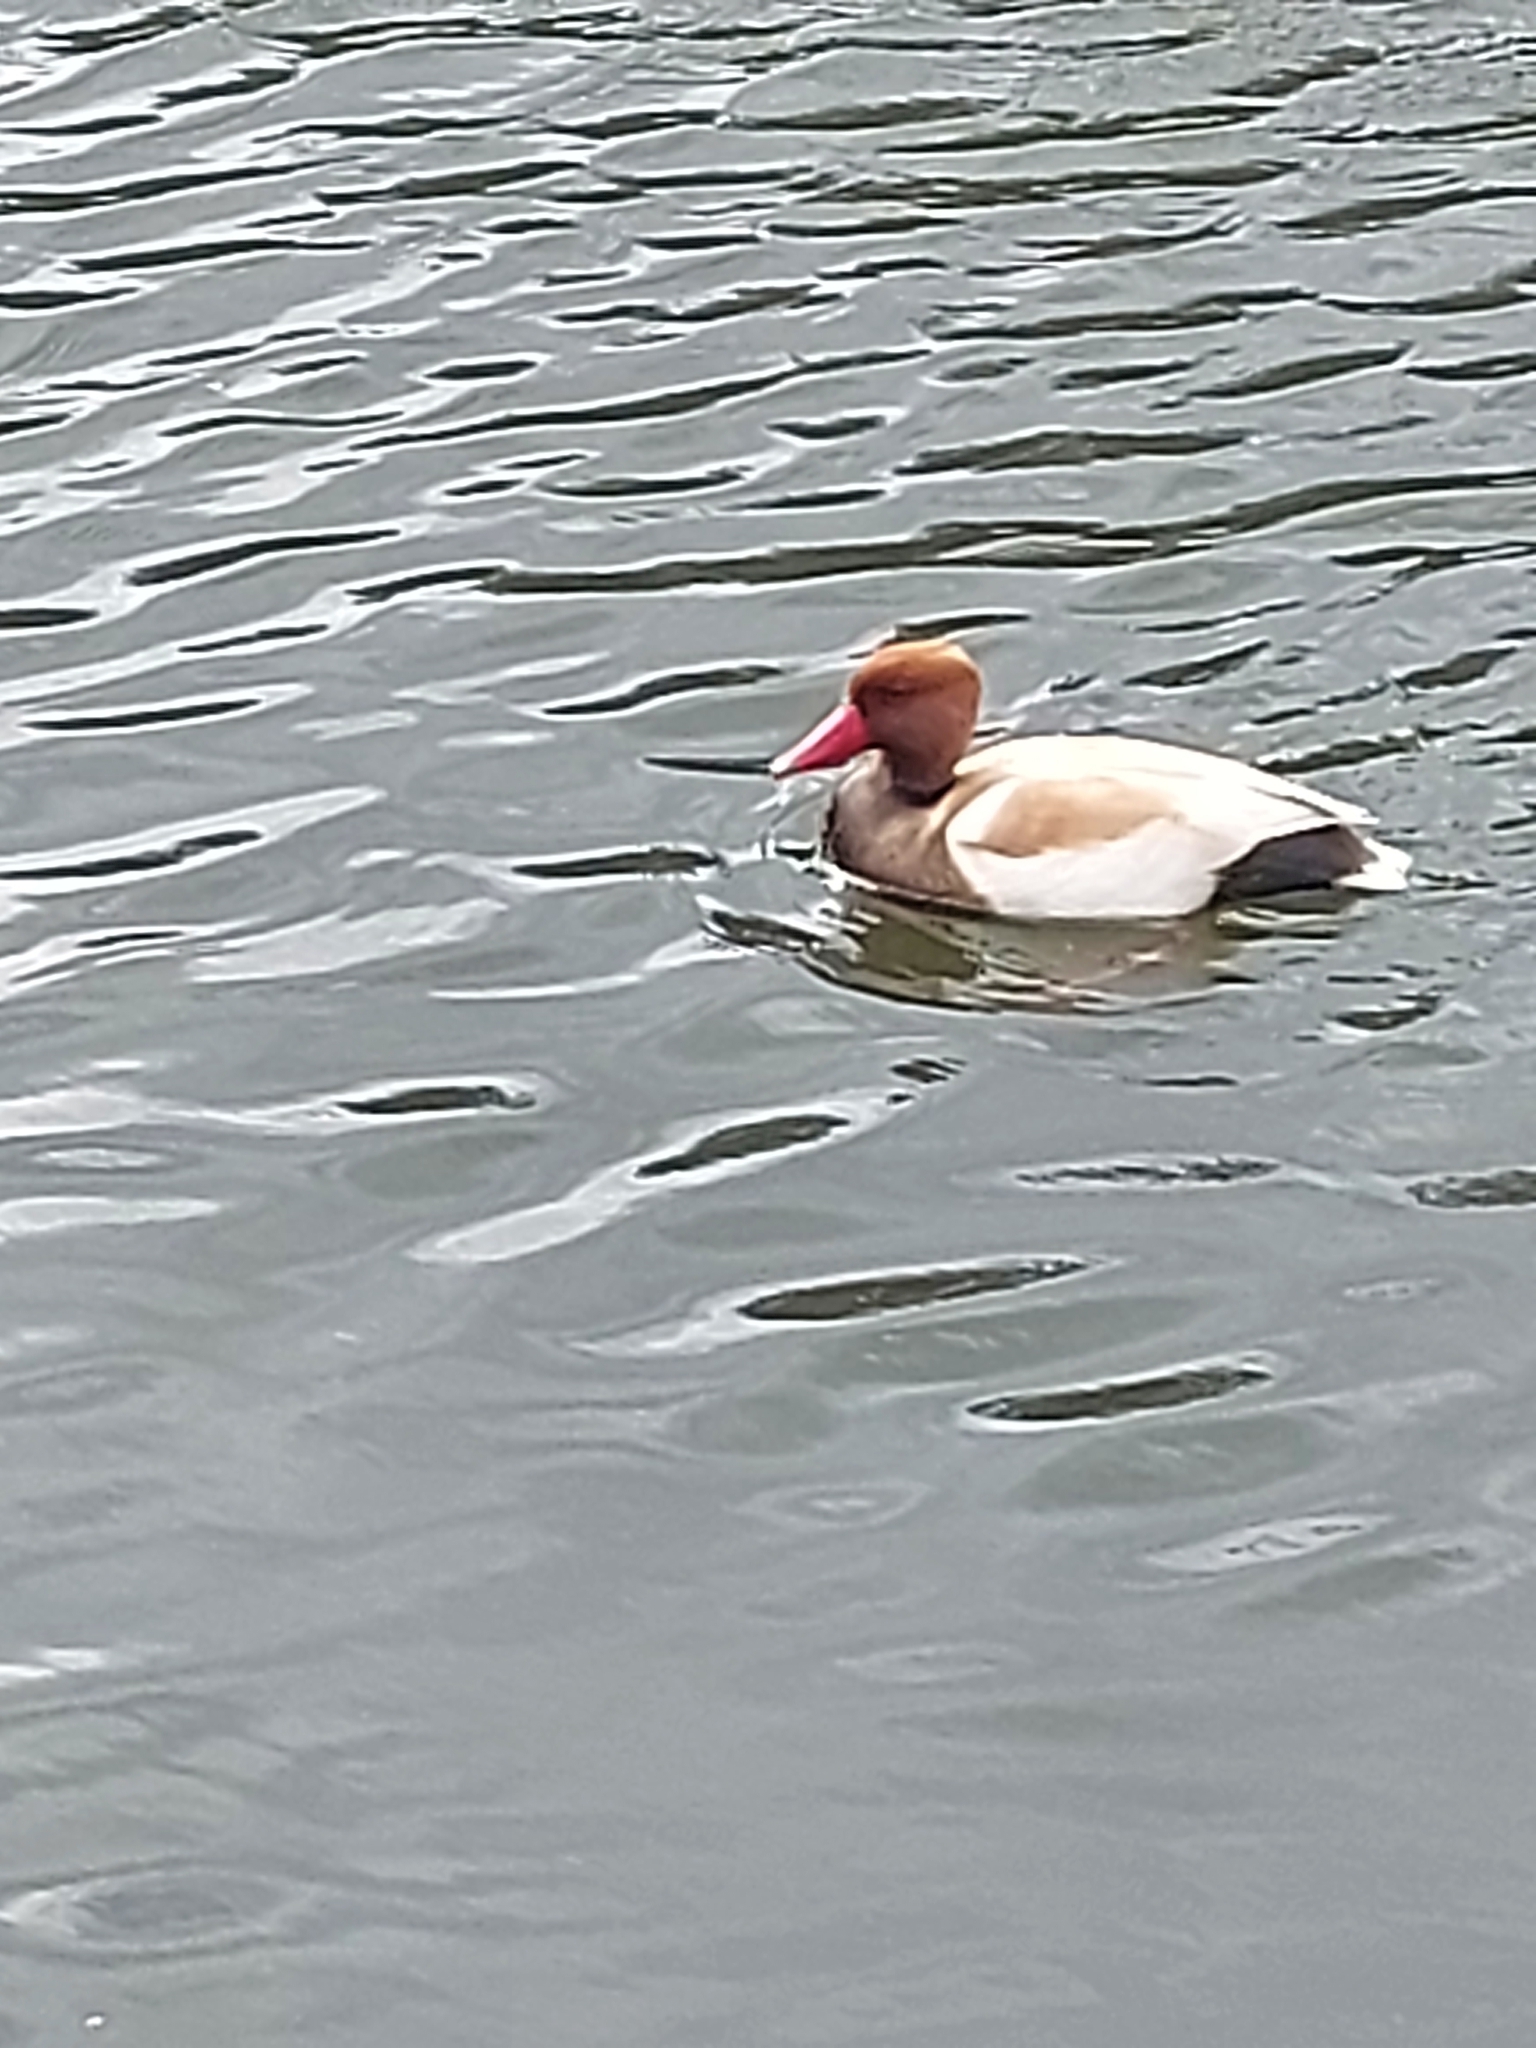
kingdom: Animalia
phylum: Chordata
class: Aves
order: Anseriformes
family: Anatidae
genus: Netta
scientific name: Netta rufina
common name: Red-crested pochard
